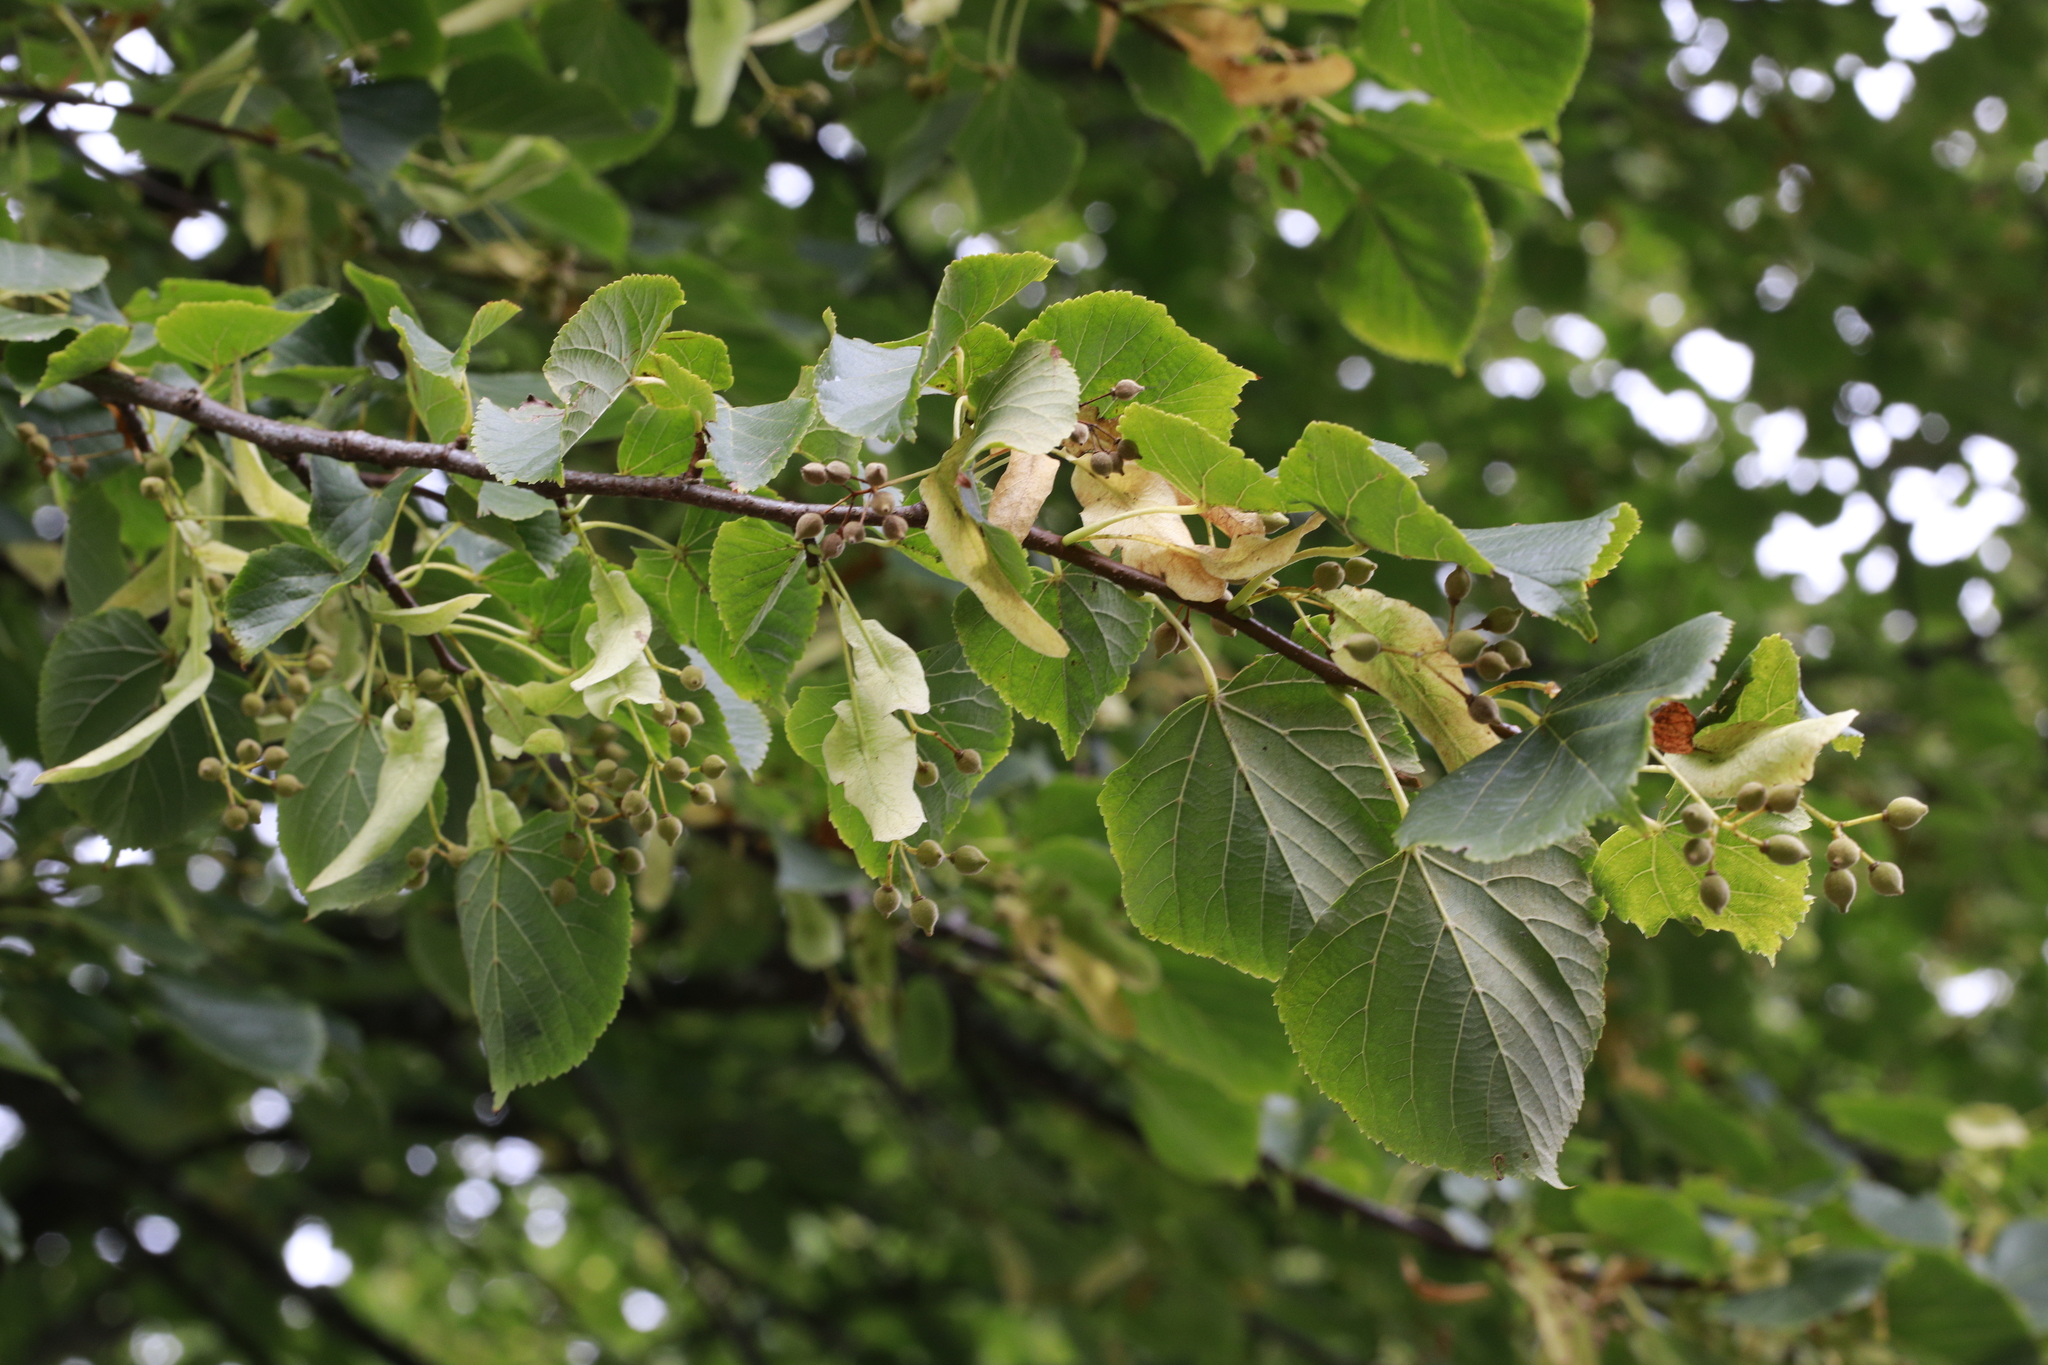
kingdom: Plantae
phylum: Tracheophyta
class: Magnoliopsida
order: Malvales
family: Malvaceae
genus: Tilia
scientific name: Tilia europaea
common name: European linden
